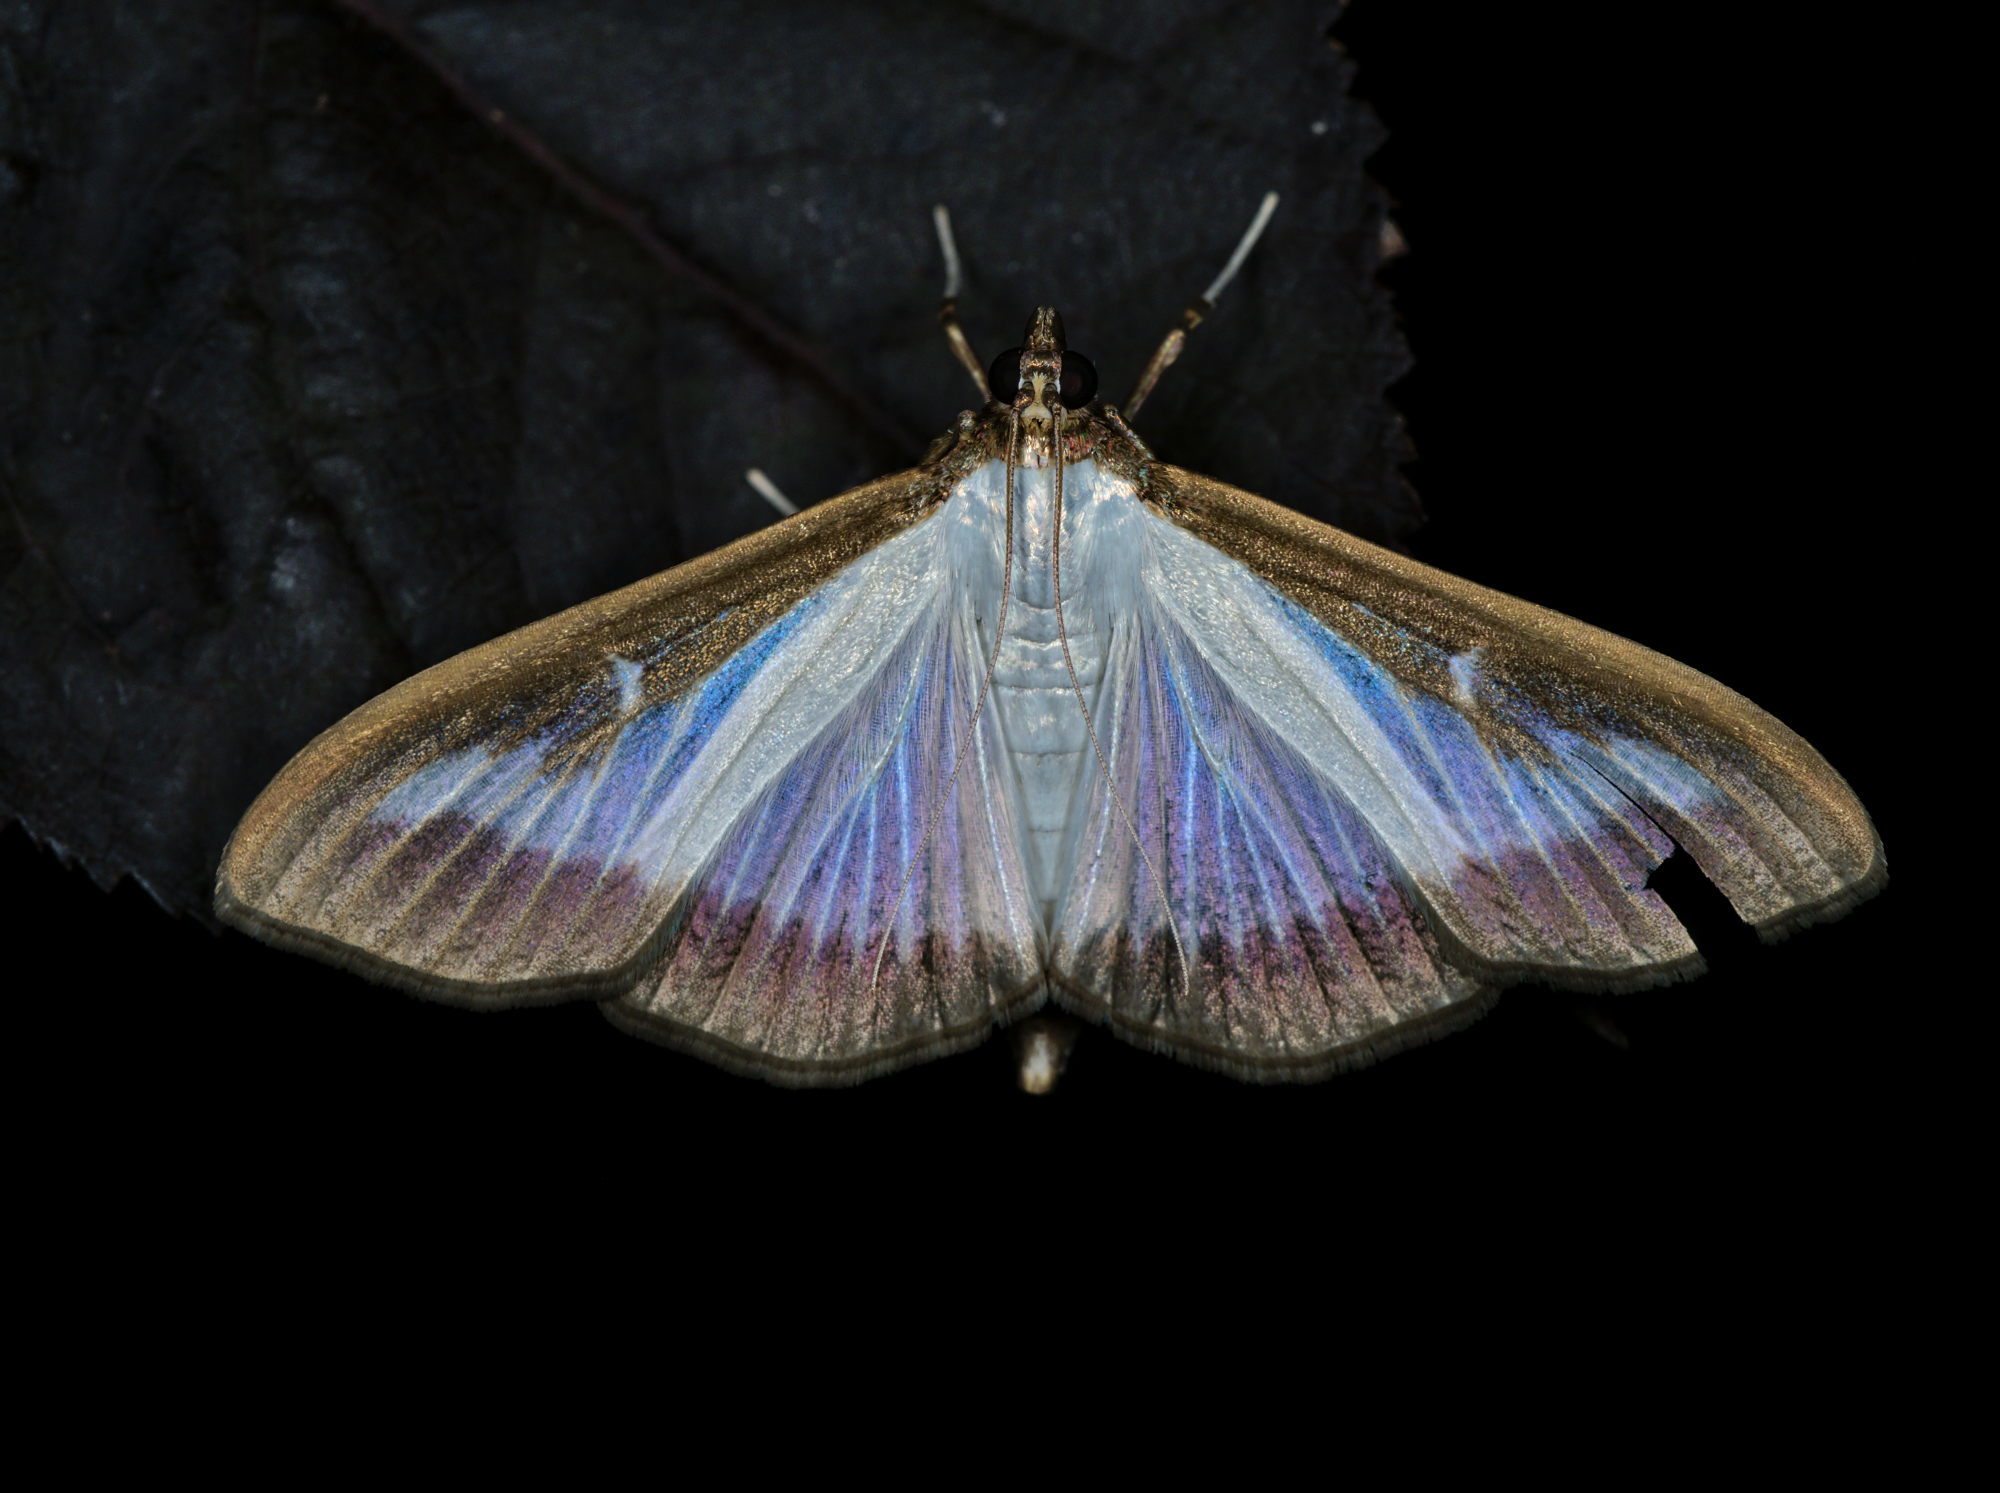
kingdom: Animalia
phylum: Arthropoda
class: Insecta
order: Lepidoptera
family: Crambidae
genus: Cydalima
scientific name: Cydalima perspectalis
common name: Box tree moth
